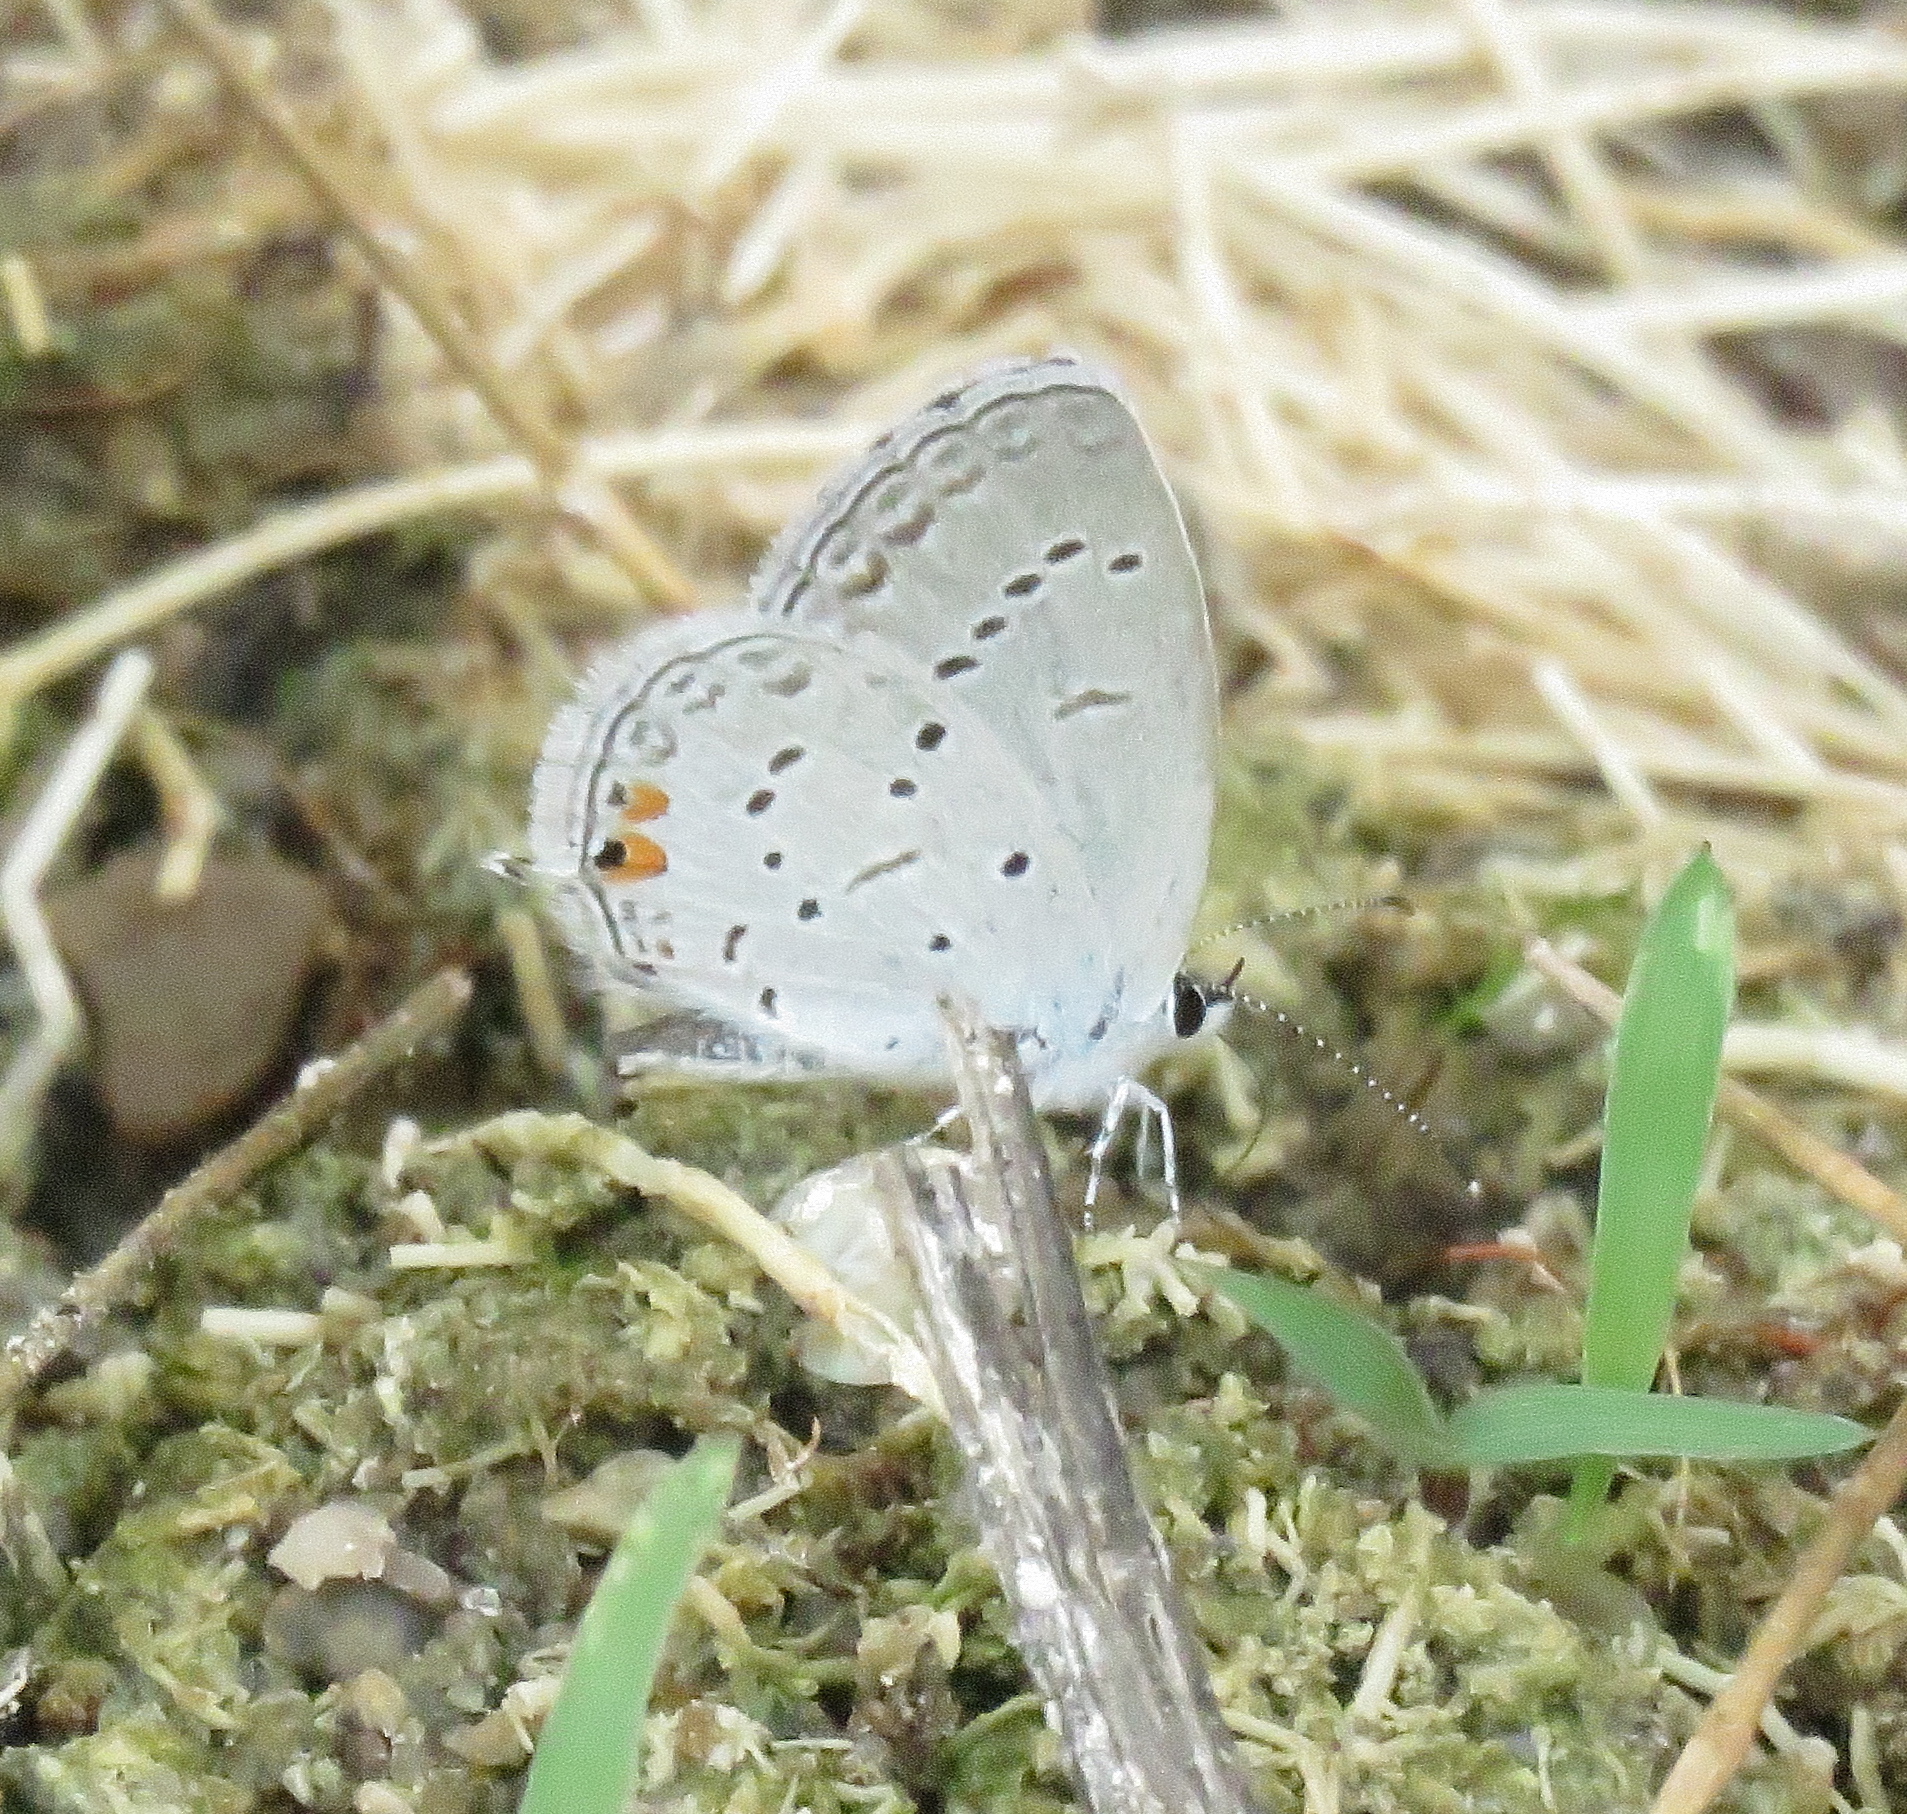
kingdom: Animalia
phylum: Arthropoda
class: Insecta
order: Lepidoptera
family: Lycaenidae
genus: Elkalyce
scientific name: Elkalyce comyntas
